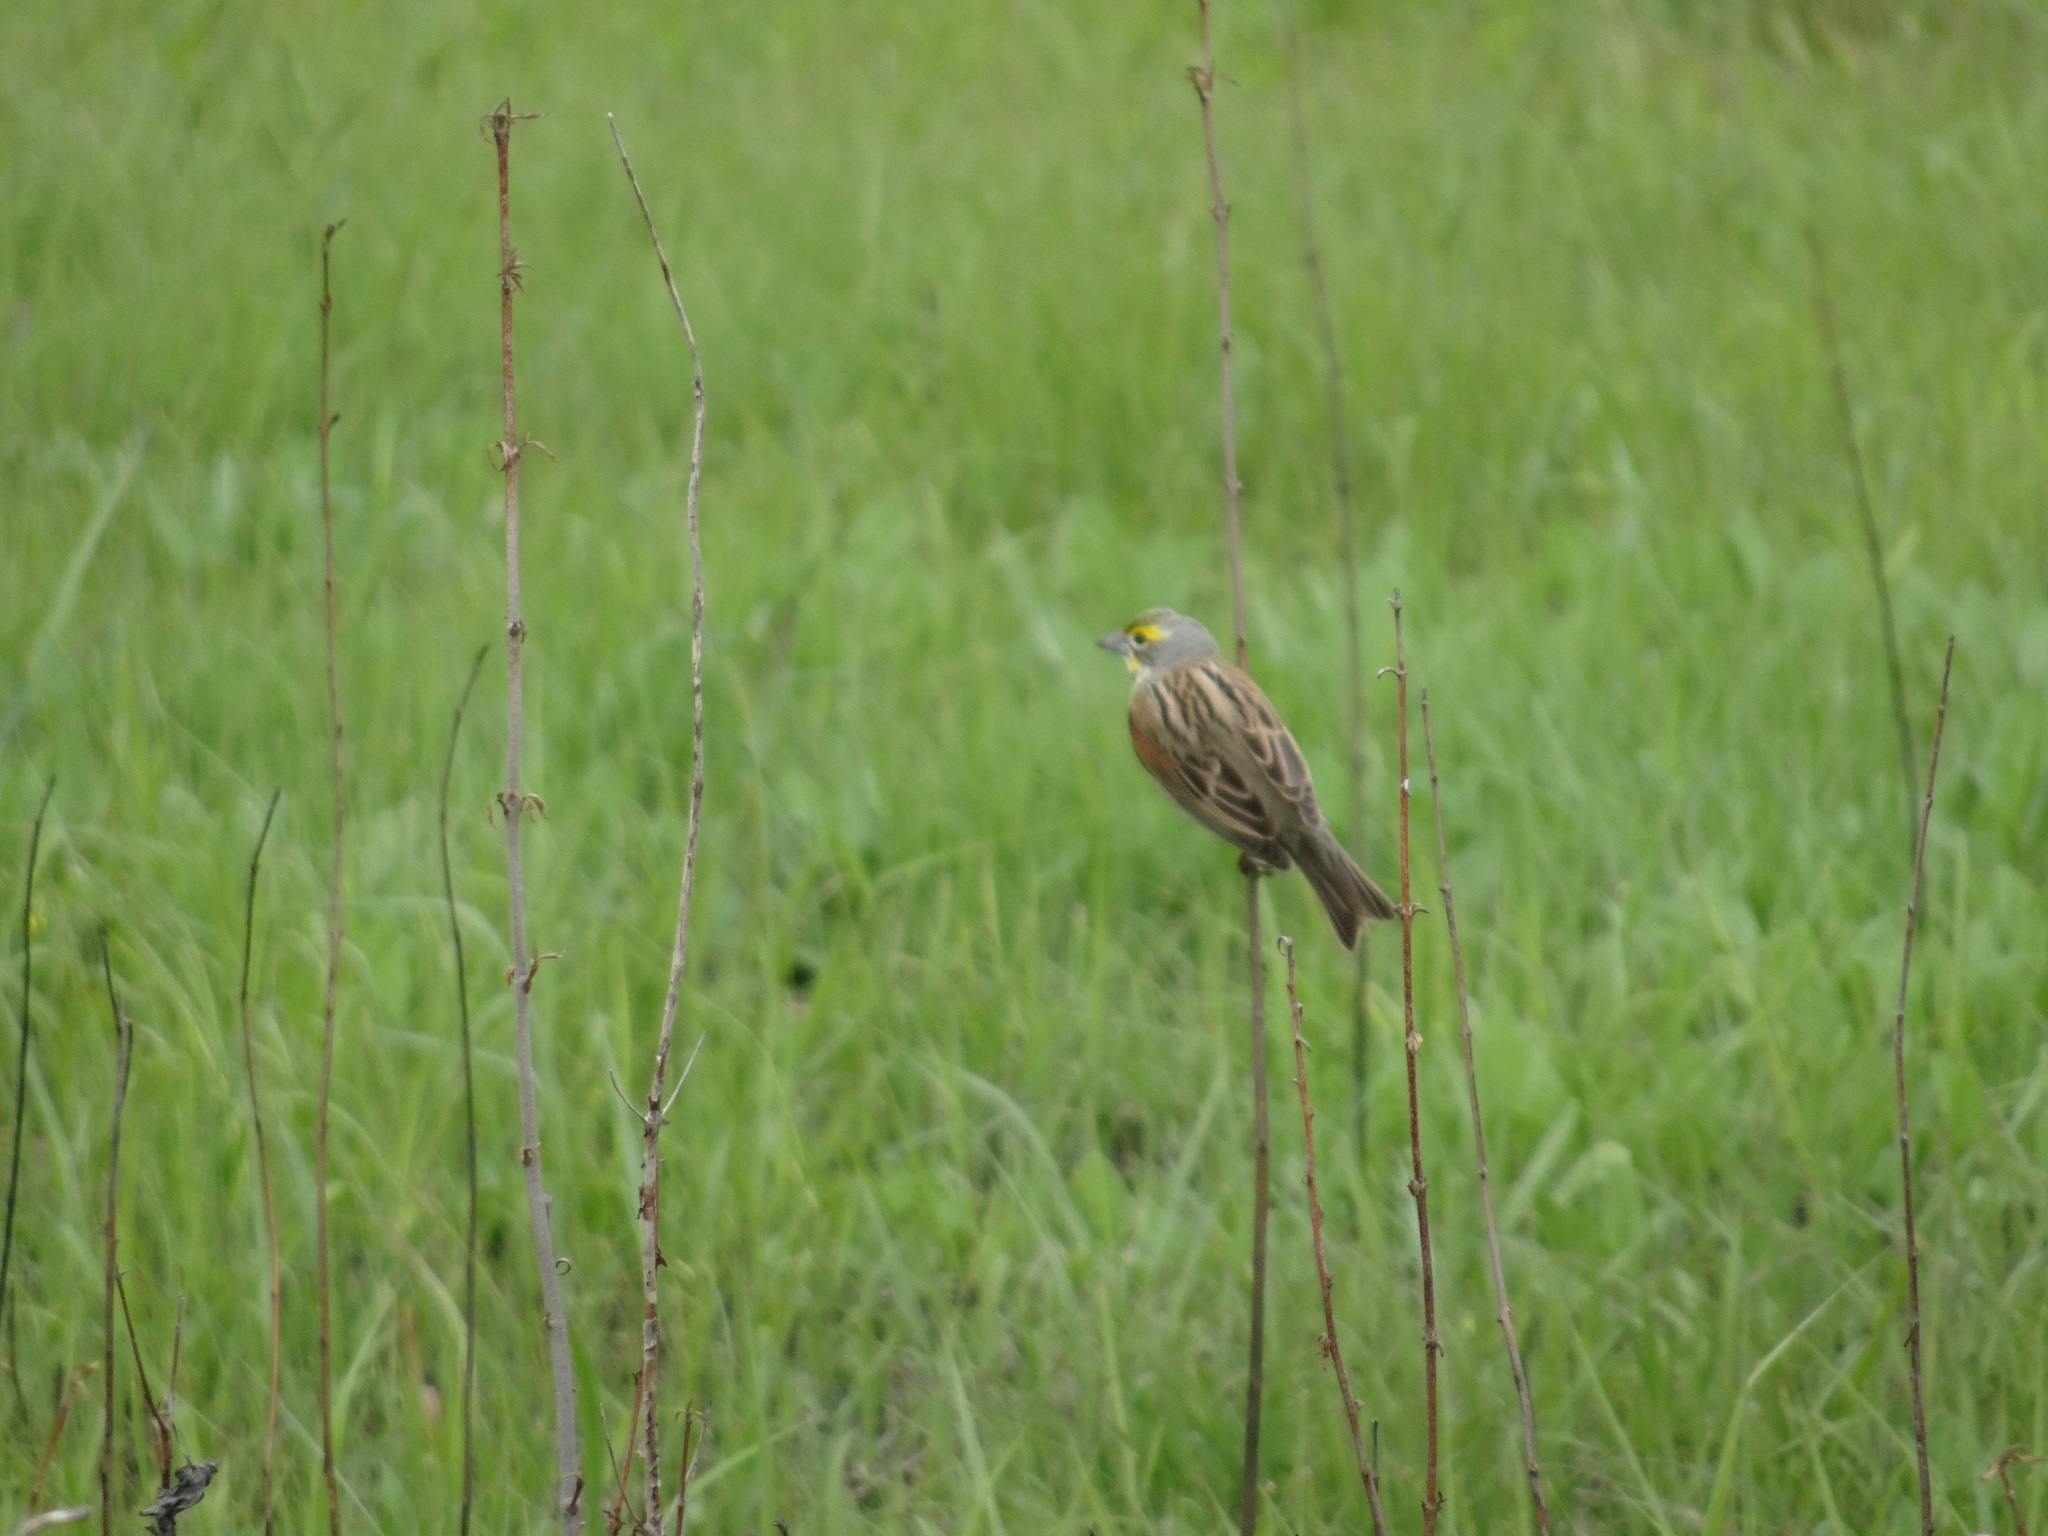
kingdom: Animalia
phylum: Chordata
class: Aves
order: Passeriformes
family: Cardinalidae
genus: Spiza
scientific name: Spiza americana
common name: Dickcissel
